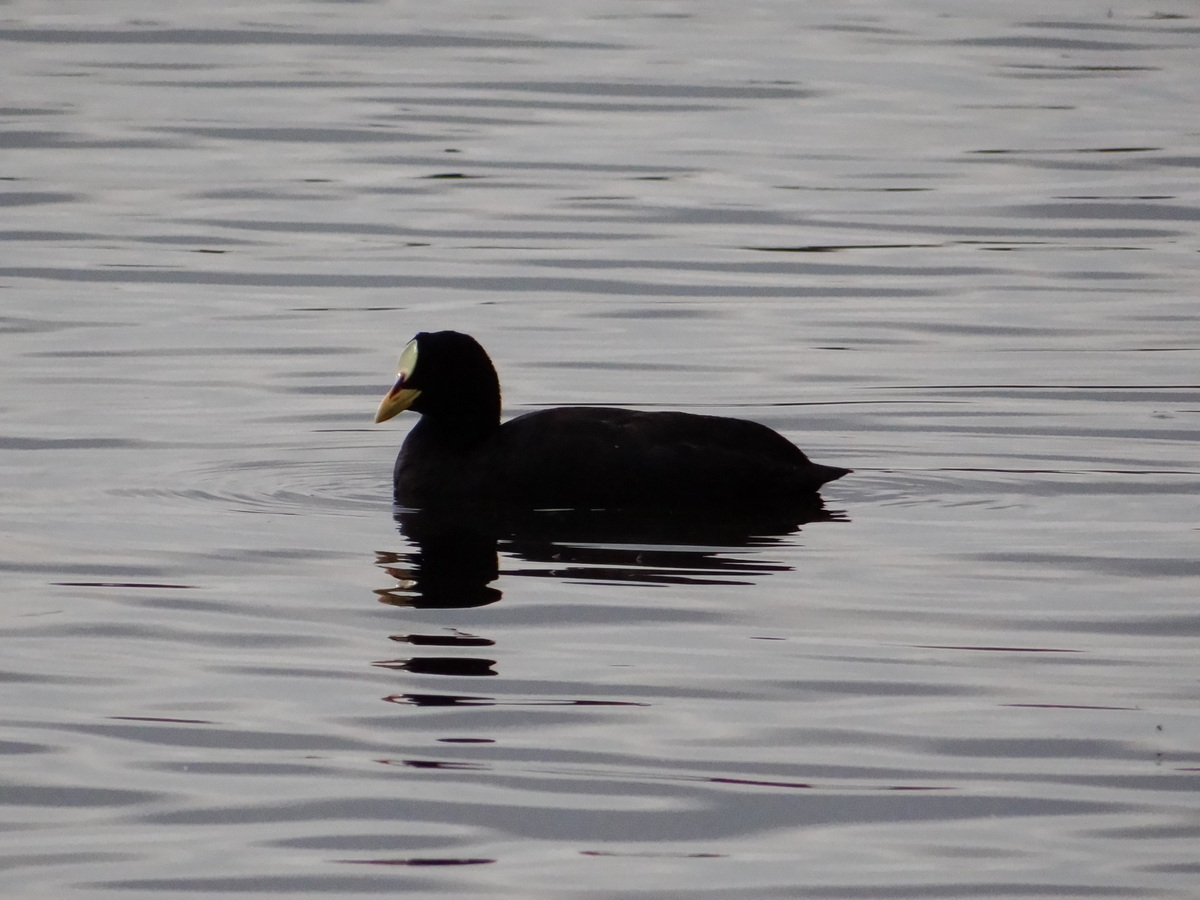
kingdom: Animalia
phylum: Chordata
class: Aves
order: Gruiformes
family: Rallidae
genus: Fulica
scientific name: Fulica armillata
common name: Red-gartered coot
